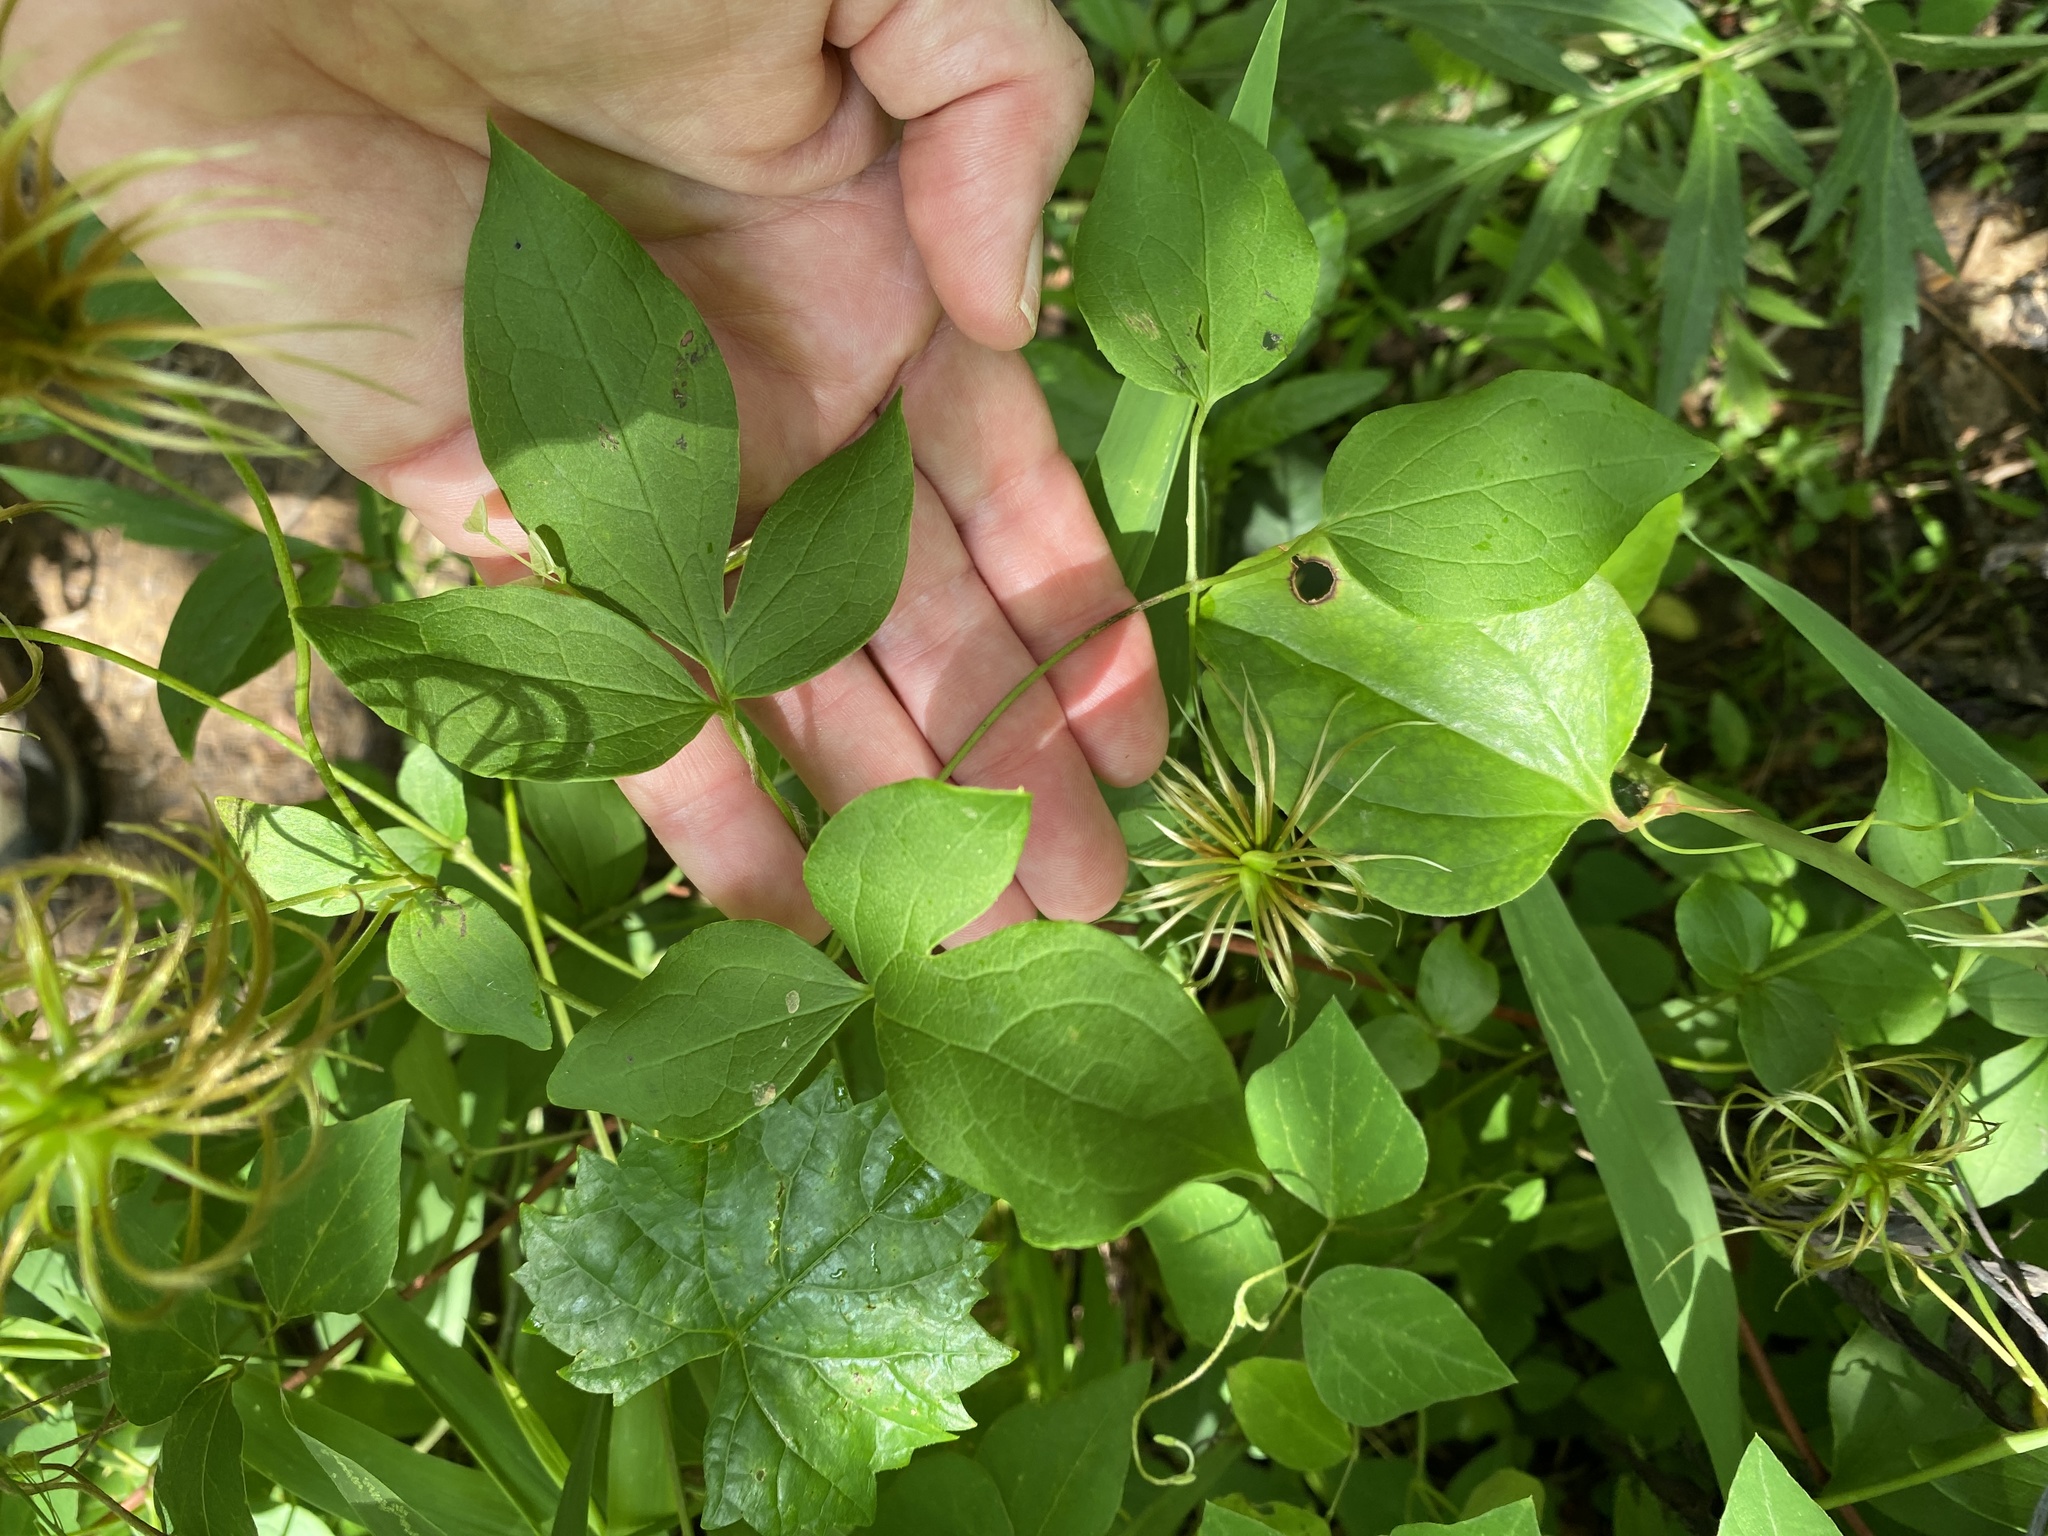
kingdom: Plantae
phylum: Tracheophyta
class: Magnoliopsida
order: Ranunculales
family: Ranunculaceae
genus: Clematis
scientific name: Clematis terniflora
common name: Sweet autumn clematis
